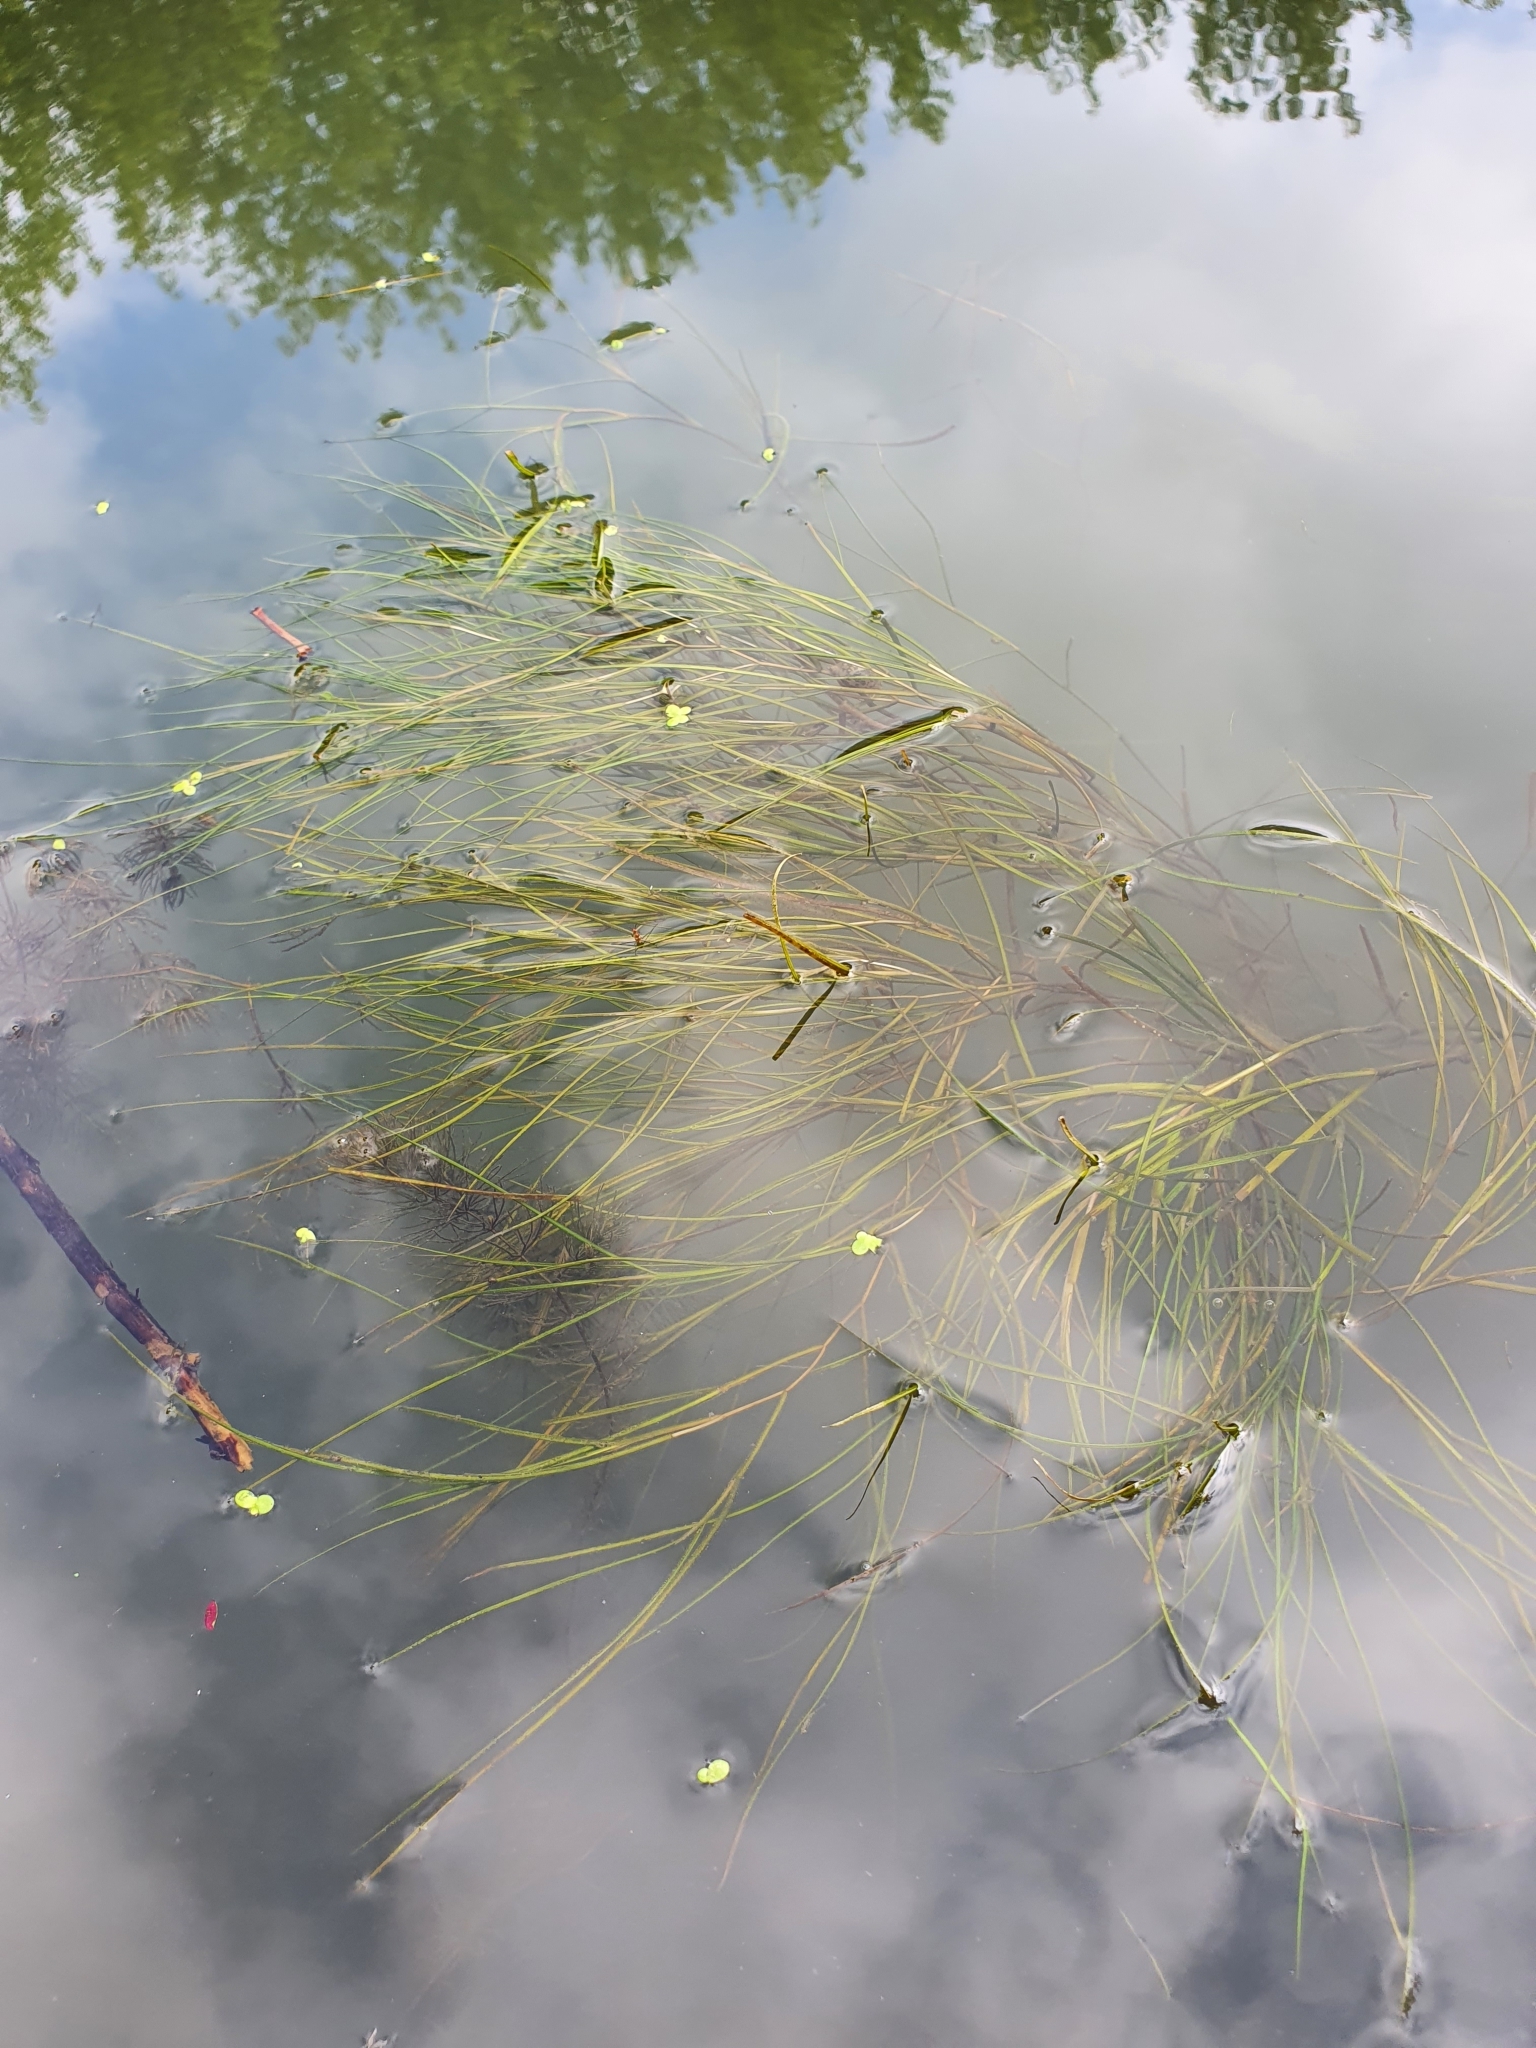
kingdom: Plantae
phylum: Tracheophyta
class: Liliopsida
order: Alismatales
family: Potamogetonaceae
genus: Stuckenia
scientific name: Stuckenia pectinata
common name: Sago pondweed
